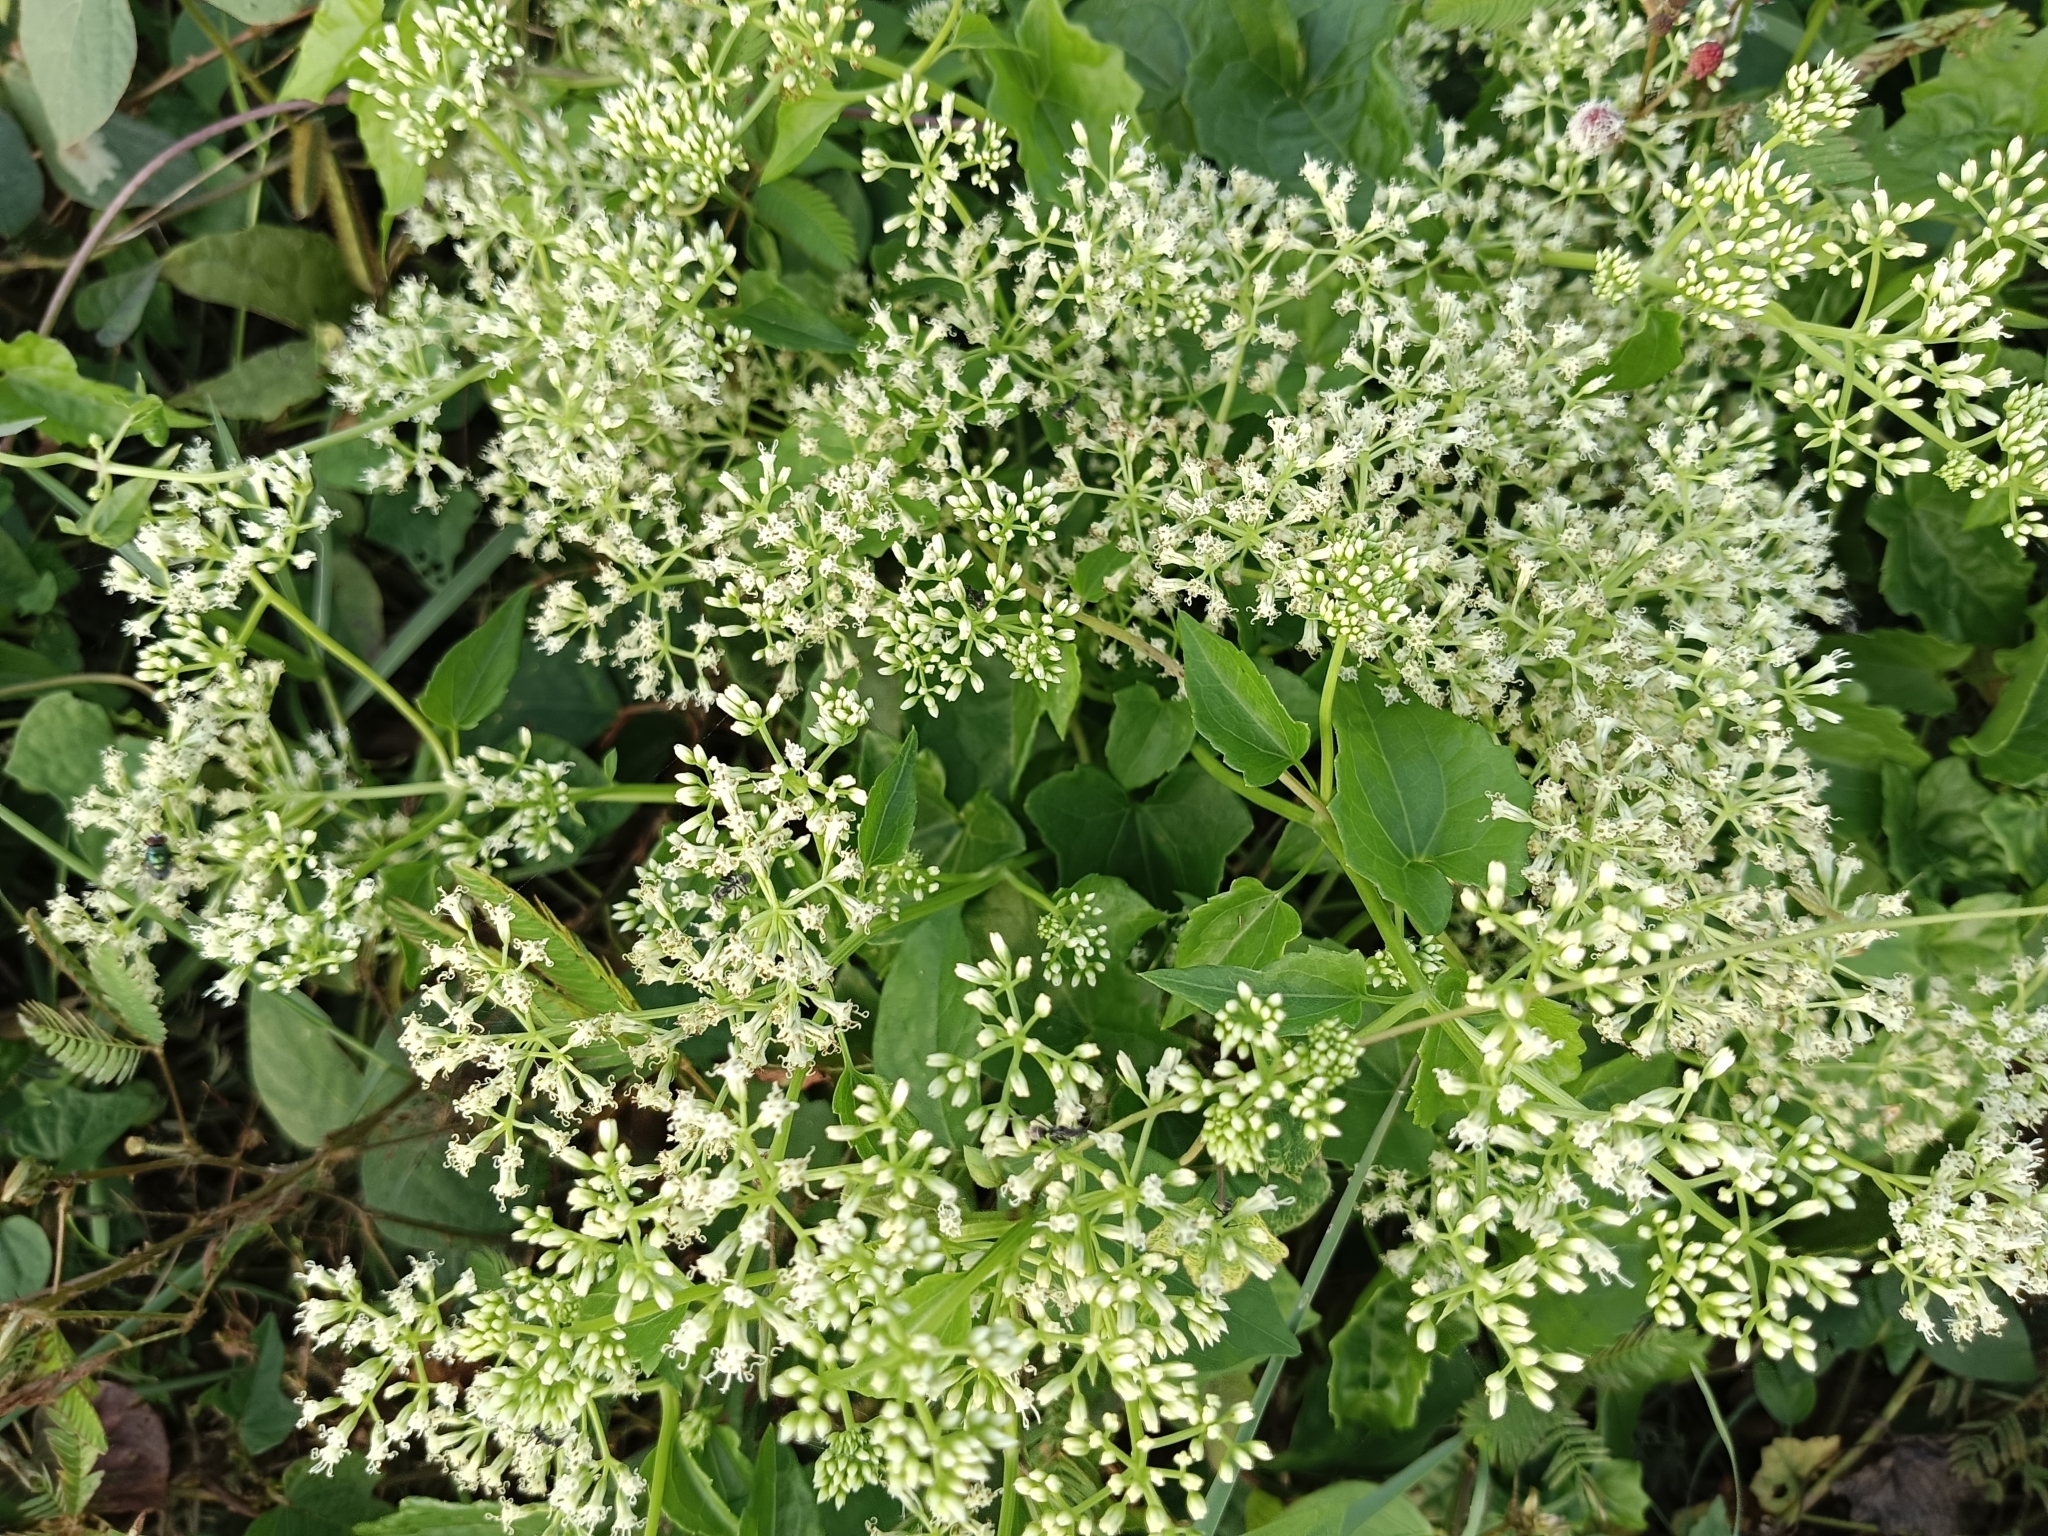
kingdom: Plantae
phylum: Tracheophyta
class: Magnoliopsida
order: Asterales
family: Asteraceae
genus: Mikania
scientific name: Mikania micrantha
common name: Mile-a-minute
